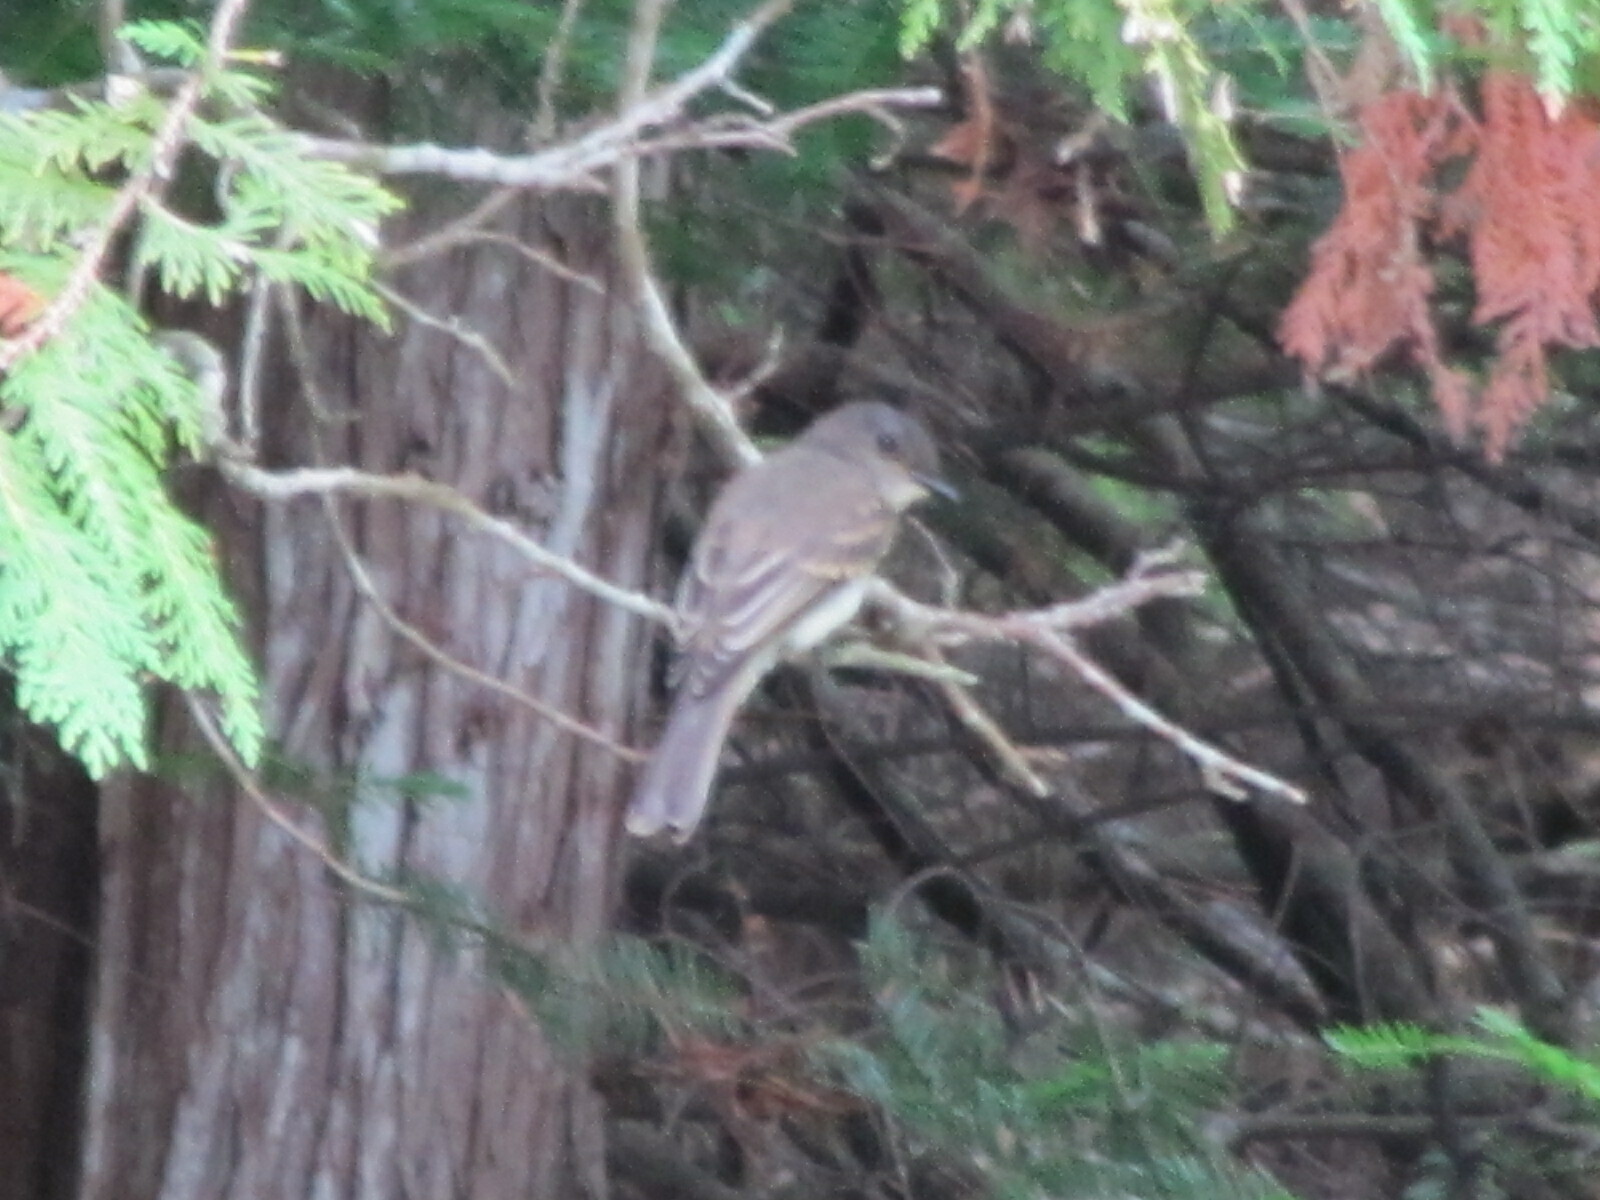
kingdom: Animalia
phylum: Chordata
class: Aves
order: Passeriformes
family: Tyrannidae
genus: Sayornis
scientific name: Sayornis phoebe
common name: Eastern phoebe
